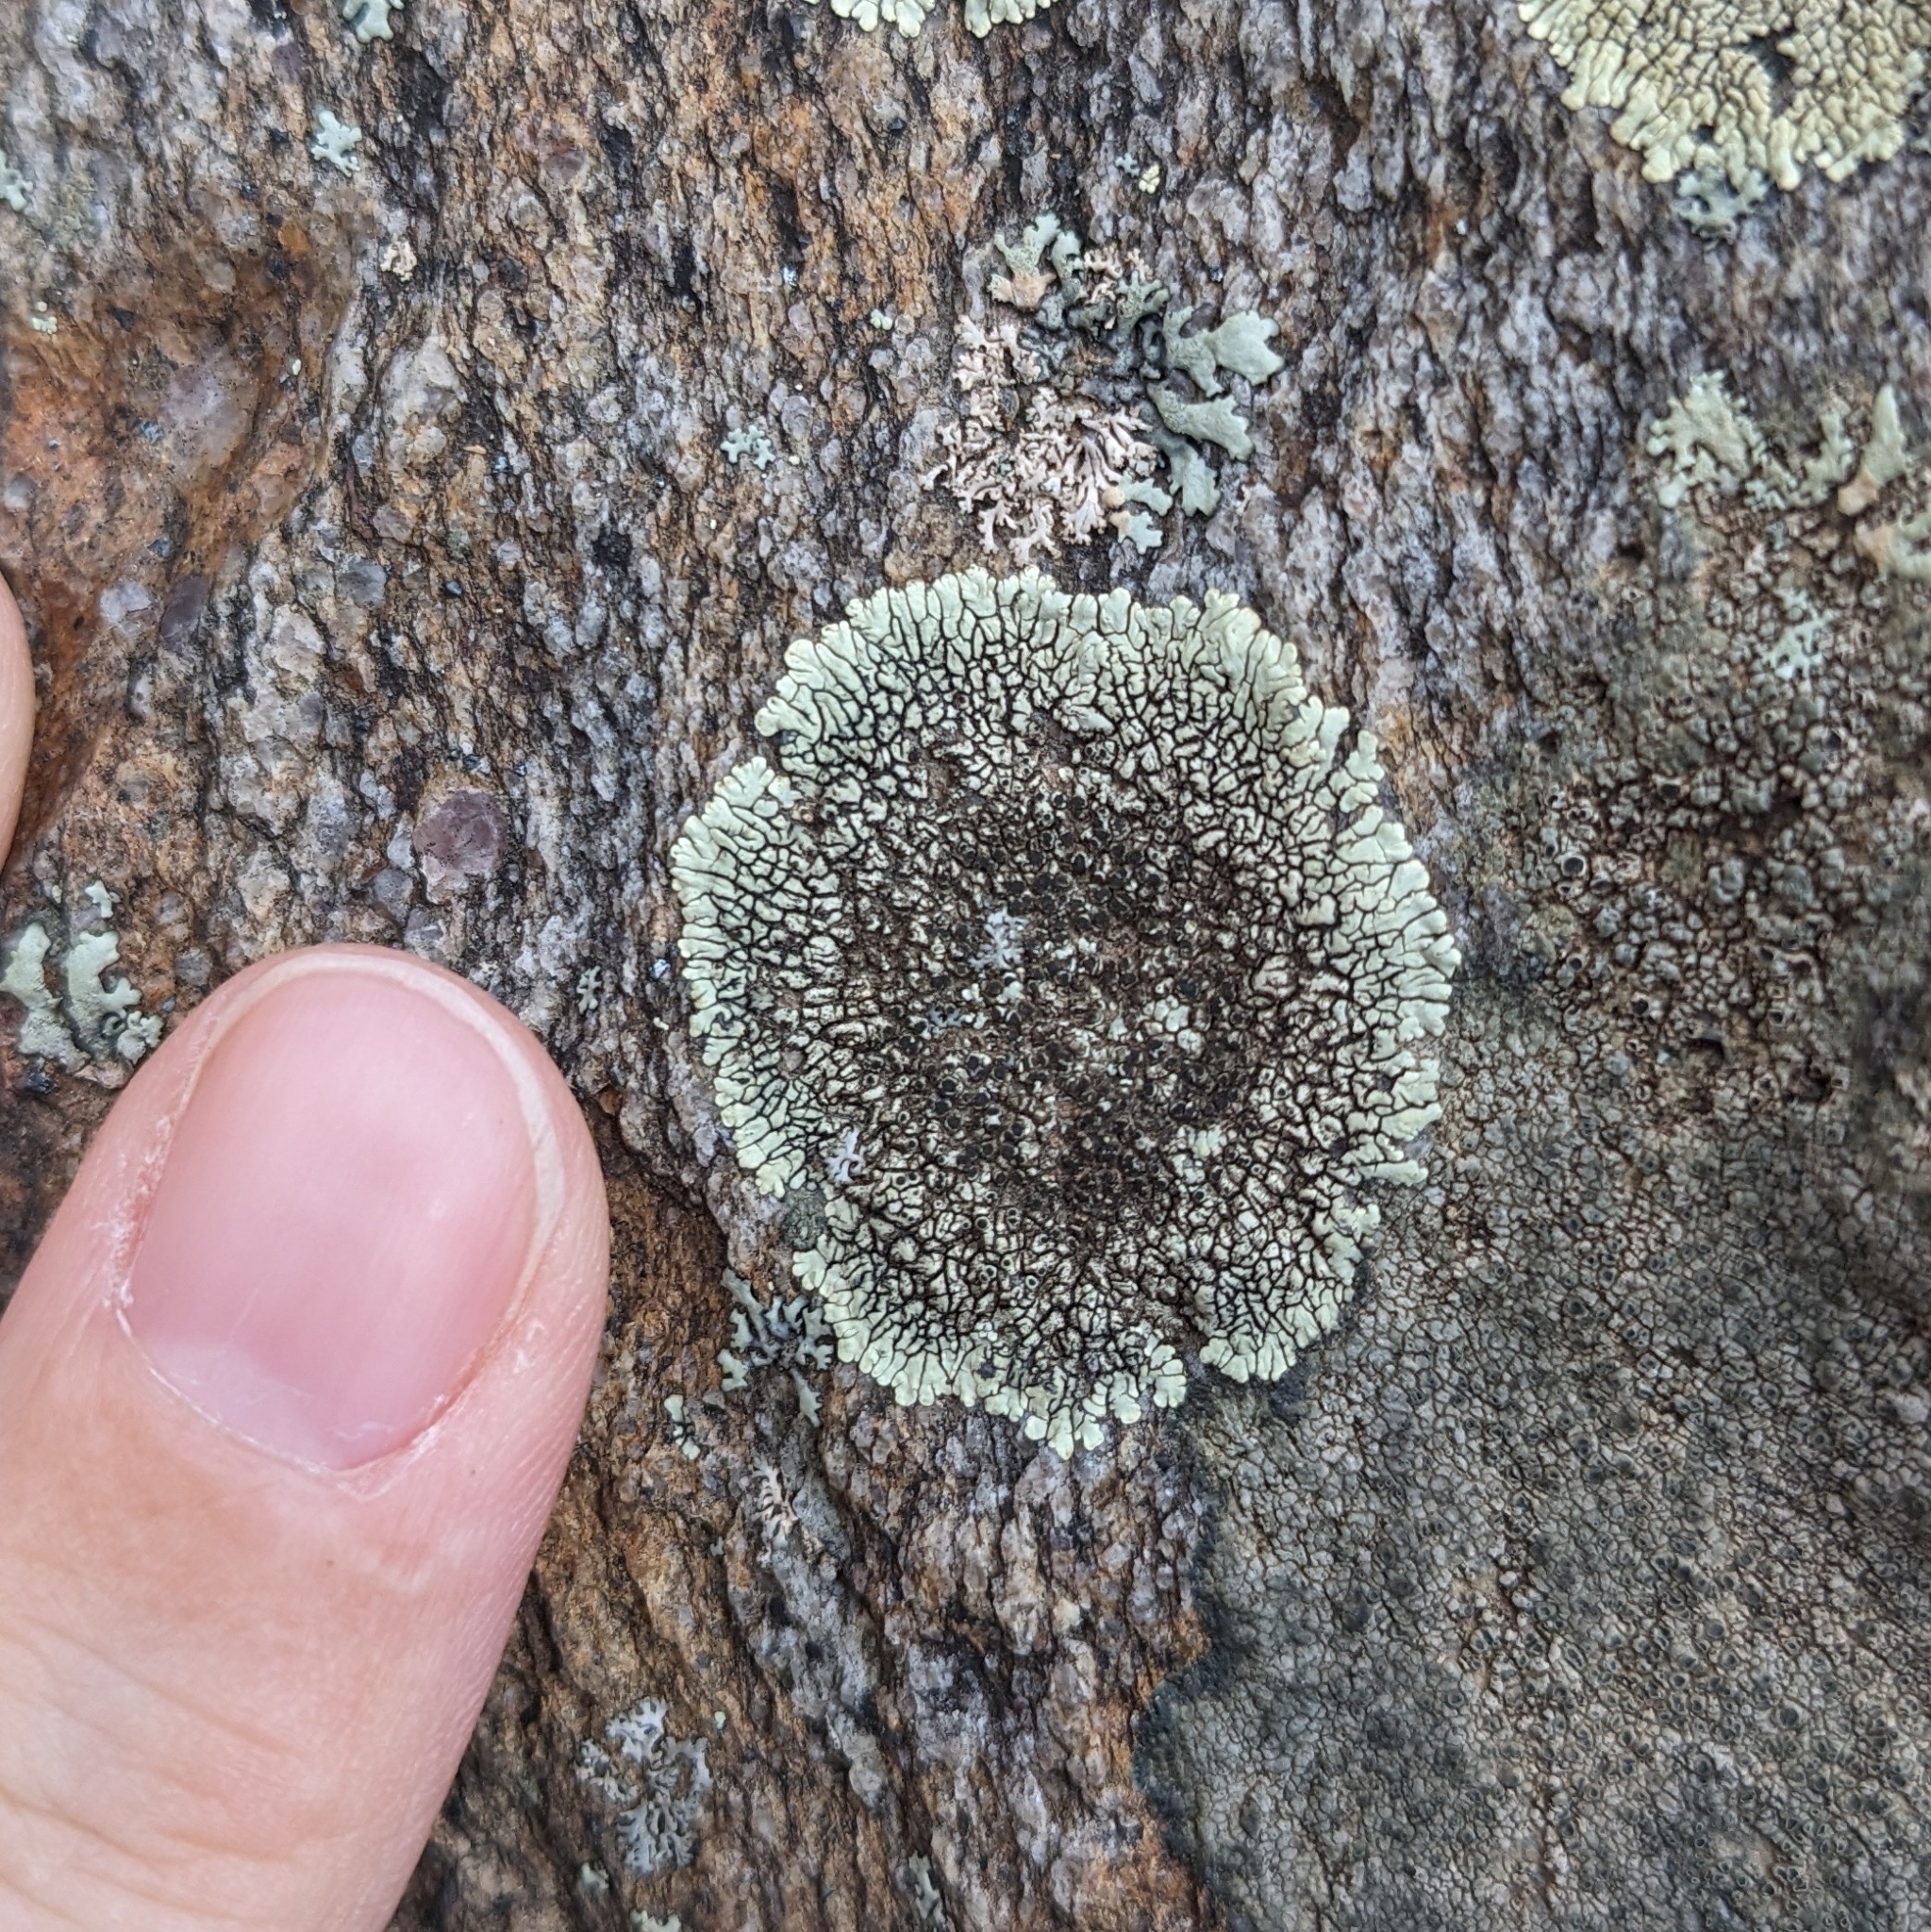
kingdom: Fungi
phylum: Ascomycota
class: Lecanoromycetes
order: Caliciales
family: Caliciaceae
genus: Dimelaena
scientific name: Dimelaena oreina
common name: Golden moonglow lichen
